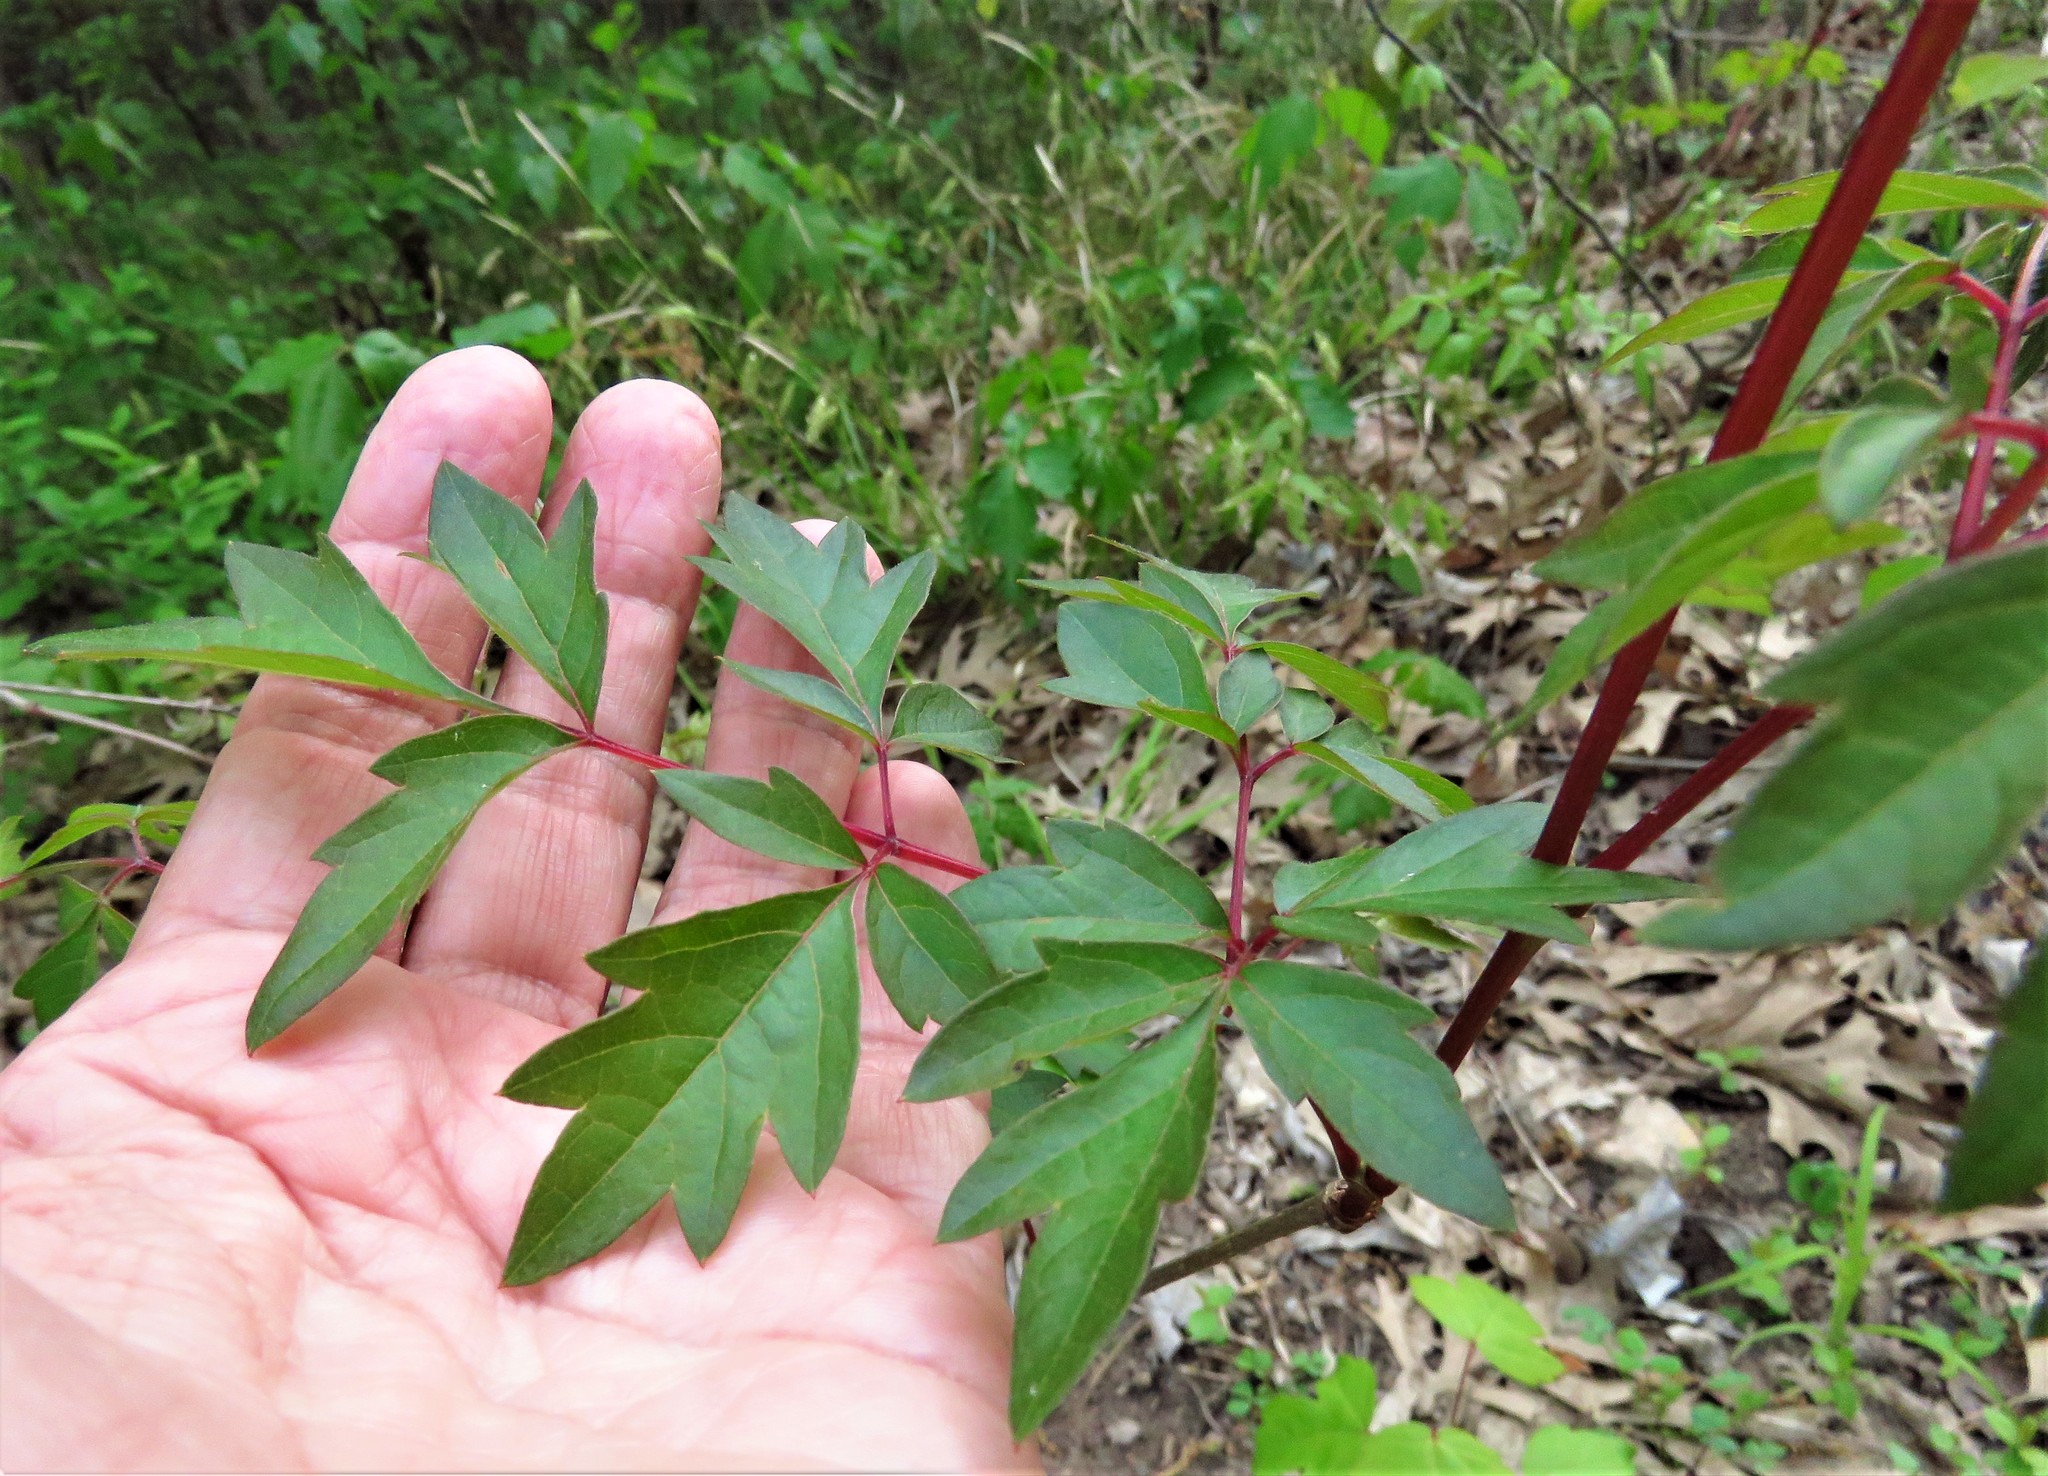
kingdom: Plantae
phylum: Tracheophyta
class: Magnoliopsida
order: Vitales
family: Vitaceae
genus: Nekemias
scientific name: Nekemias arborea
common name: Peppervine
